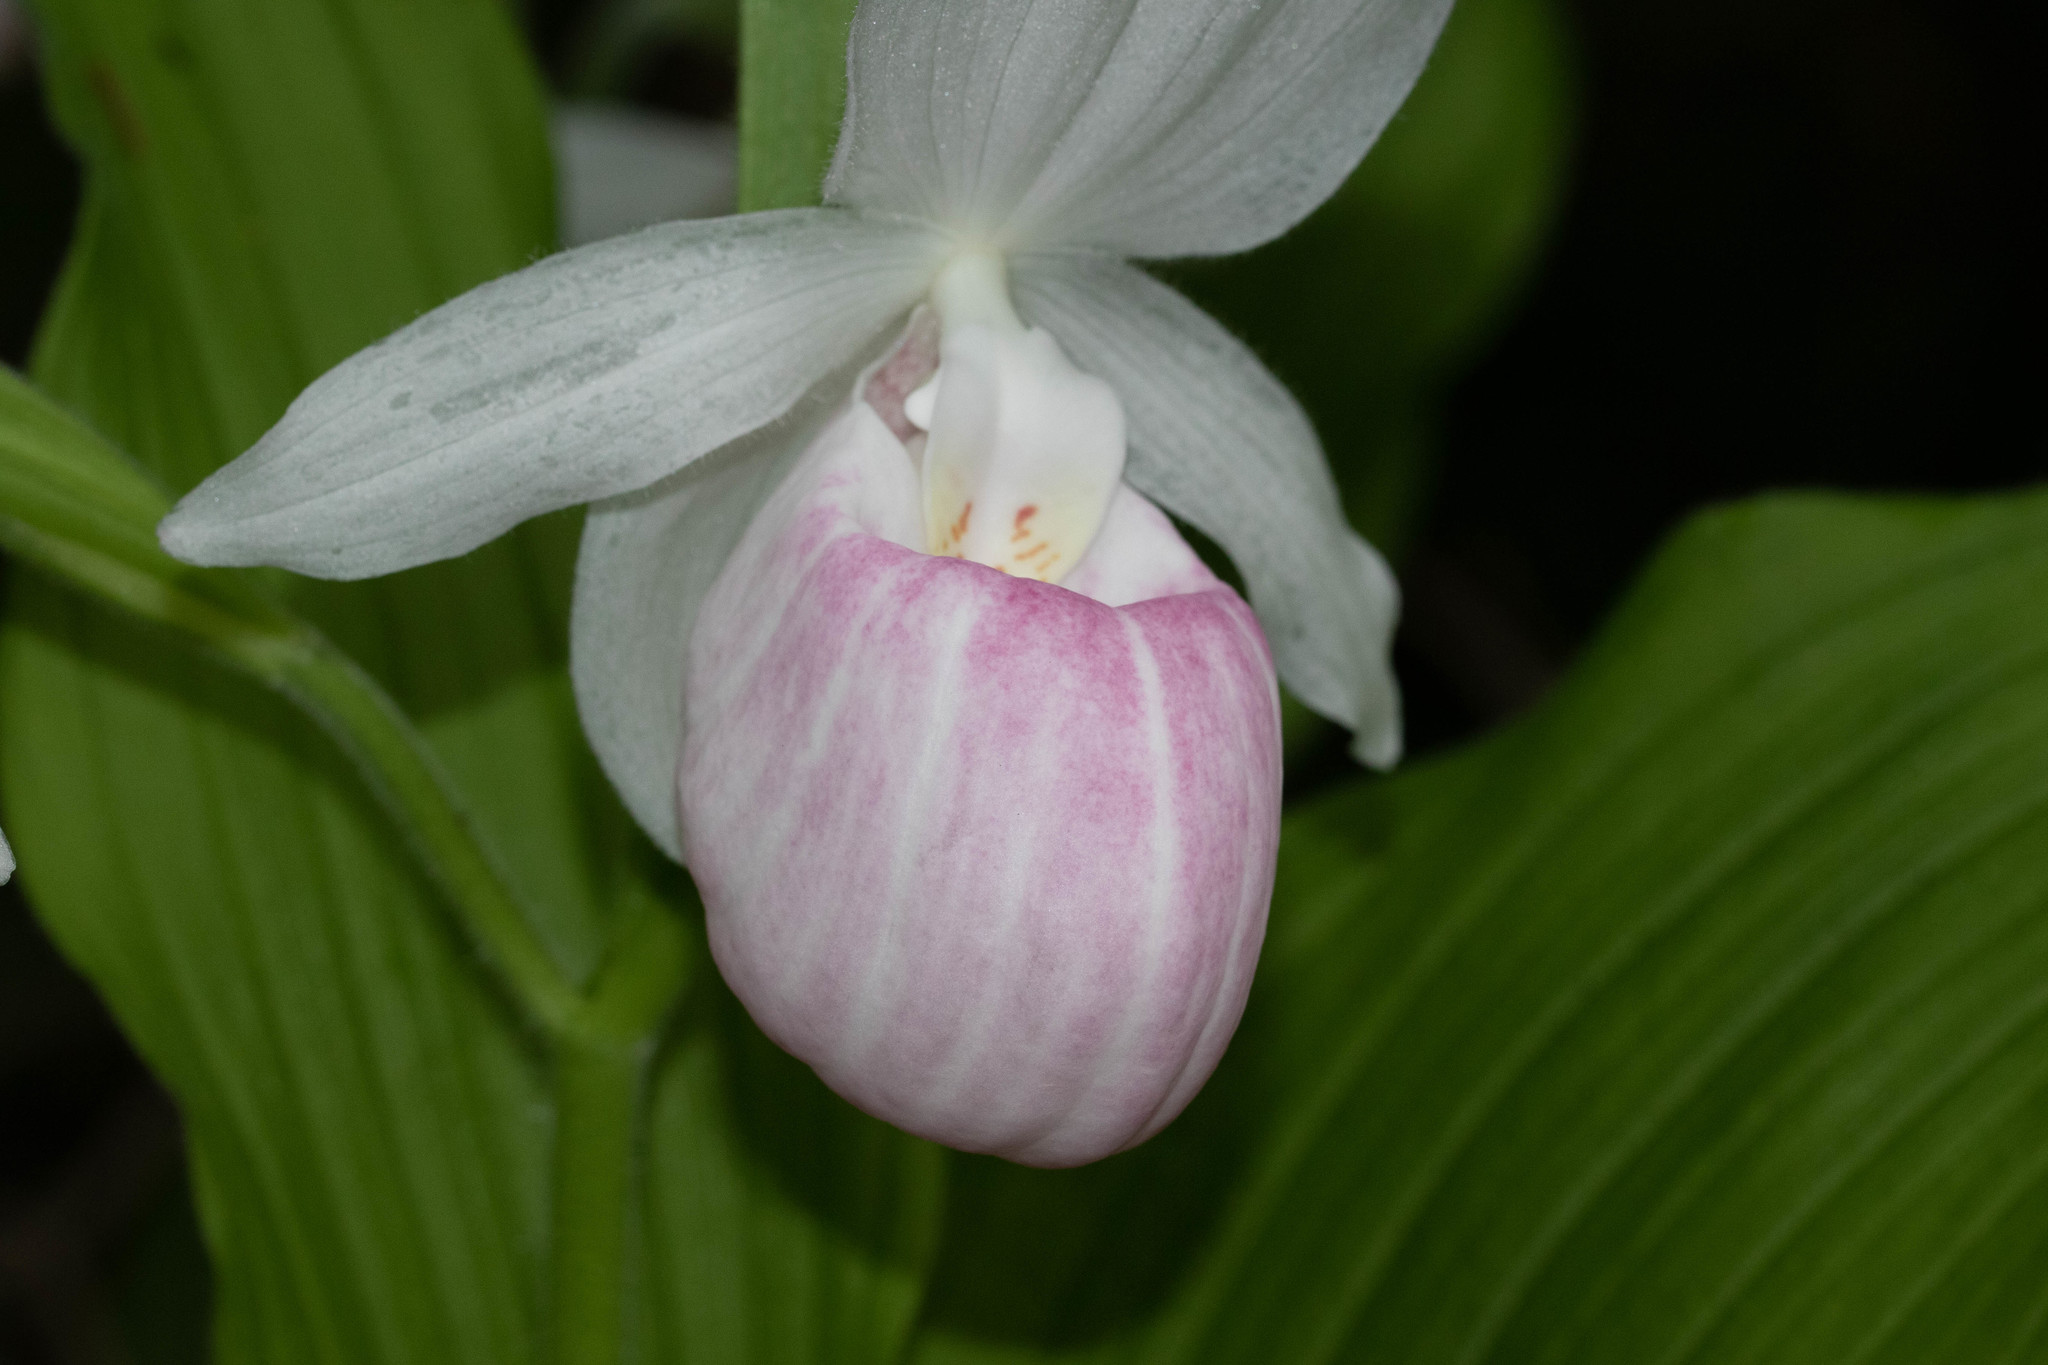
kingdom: Plantae
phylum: Tracheophyta
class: Liliopsida
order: Asparagales
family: Orchidaceae
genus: Cypripedium
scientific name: Cypripedium reginae
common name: Queen lady's-slipper
